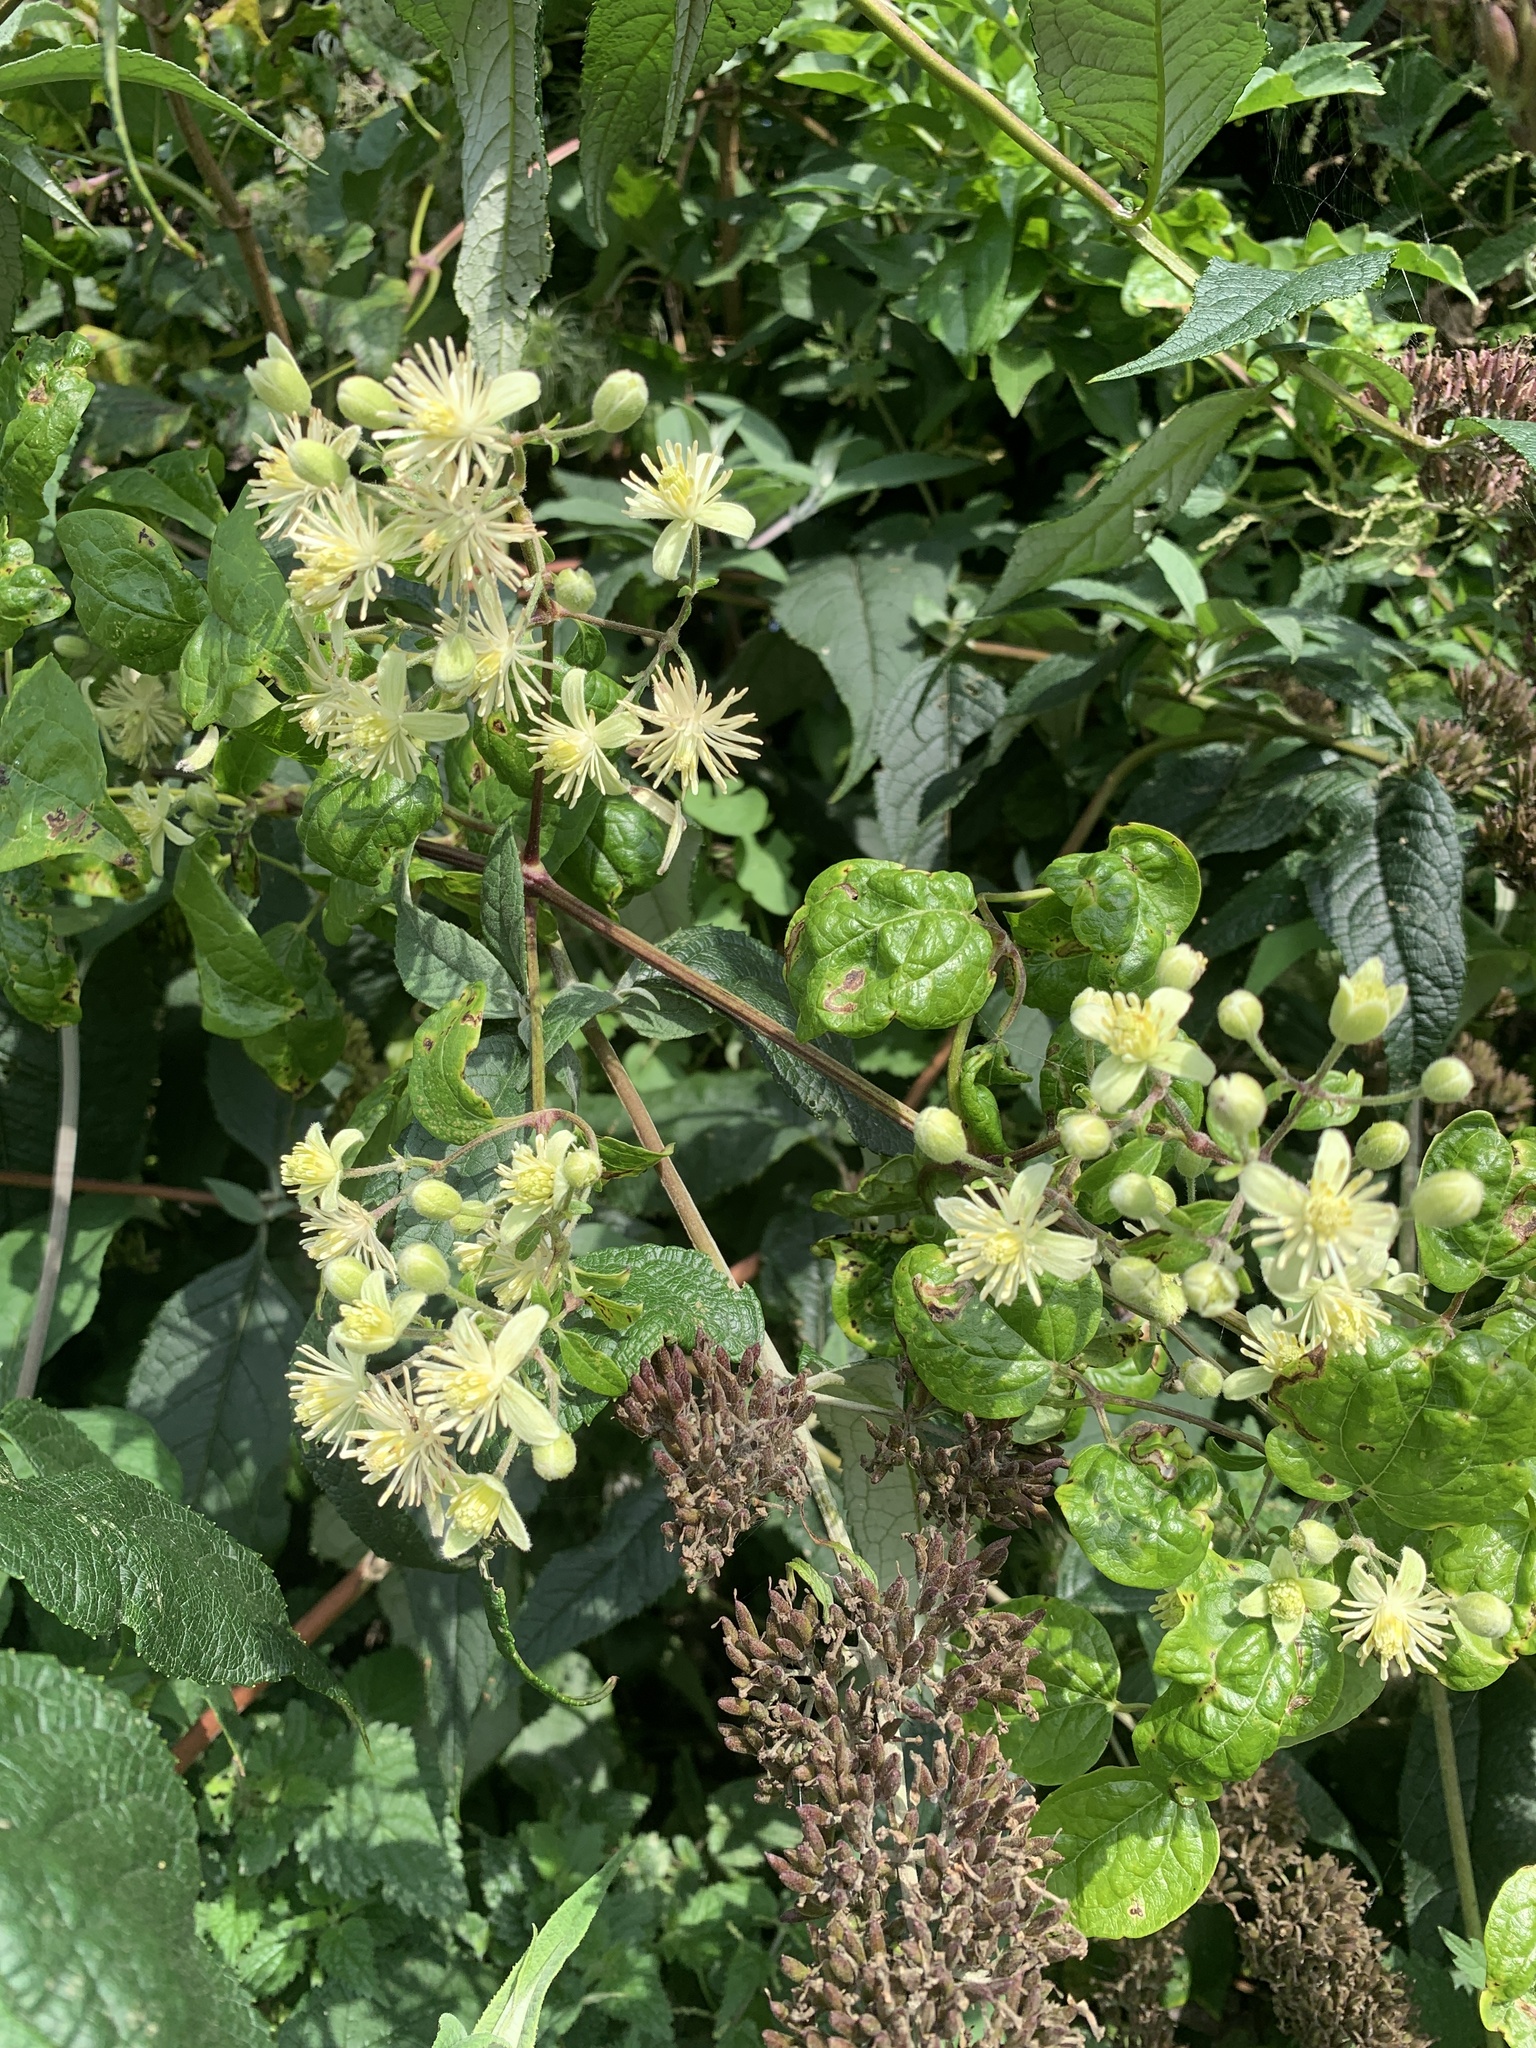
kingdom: Plantae
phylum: Tracheophyta
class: Magnoliopsida
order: Ranunculales
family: Ranunculaceae
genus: Clematis
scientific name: Clematis vitalba
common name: Evergreen clematis
